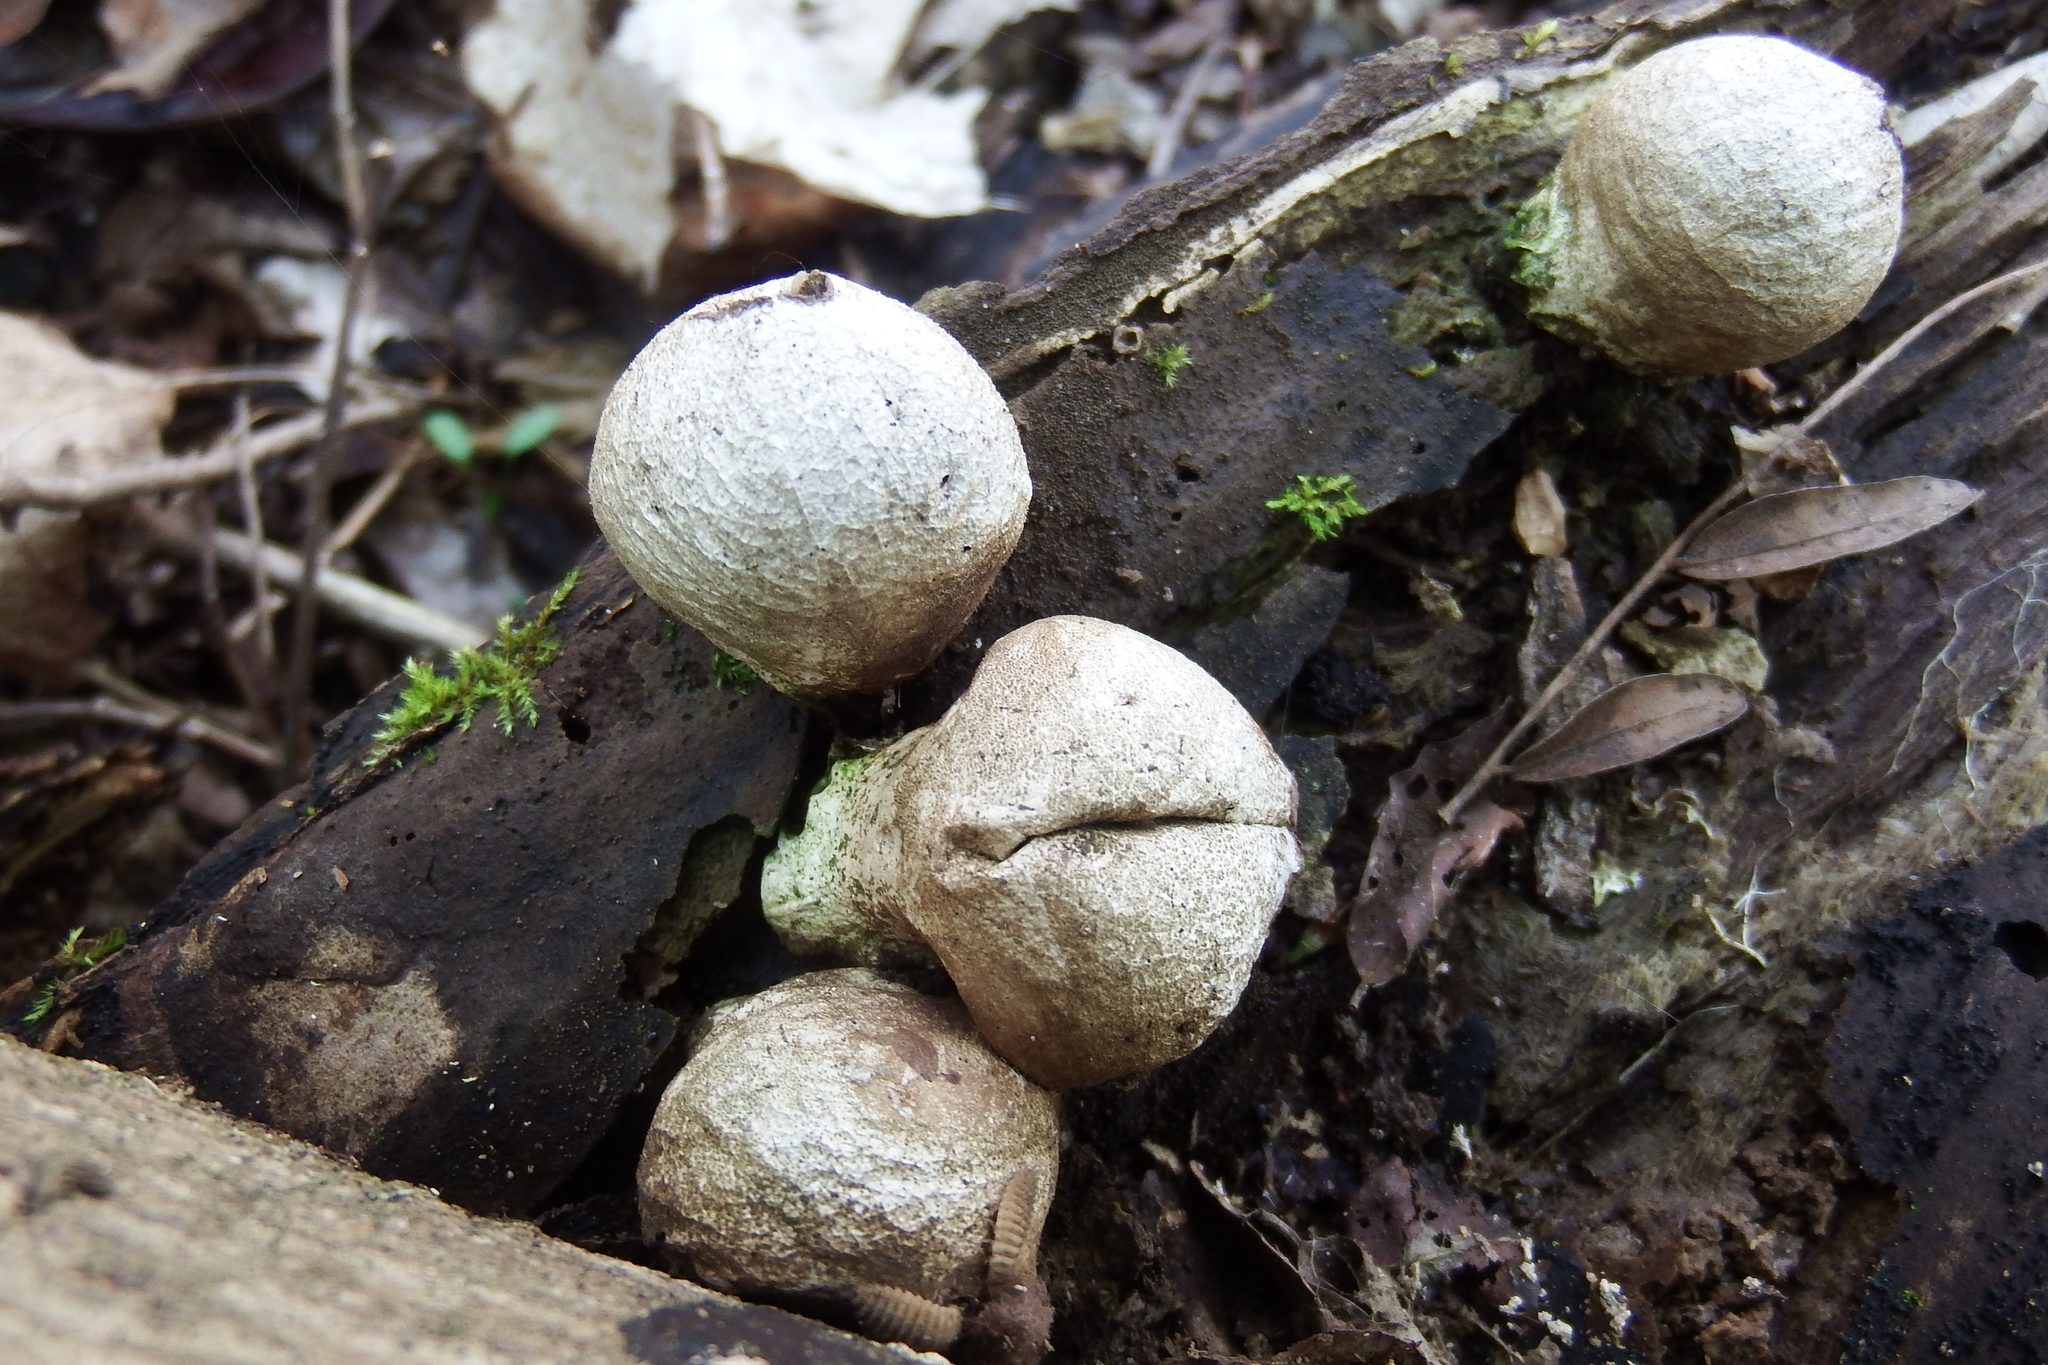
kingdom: Fungi
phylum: Basidiomycota
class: Agaricomycetes
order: Agaricales
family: Lycoperdaceae
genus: Apioperdon
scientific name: Apioperdon pyriforme
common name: Pear-shaped puffball
